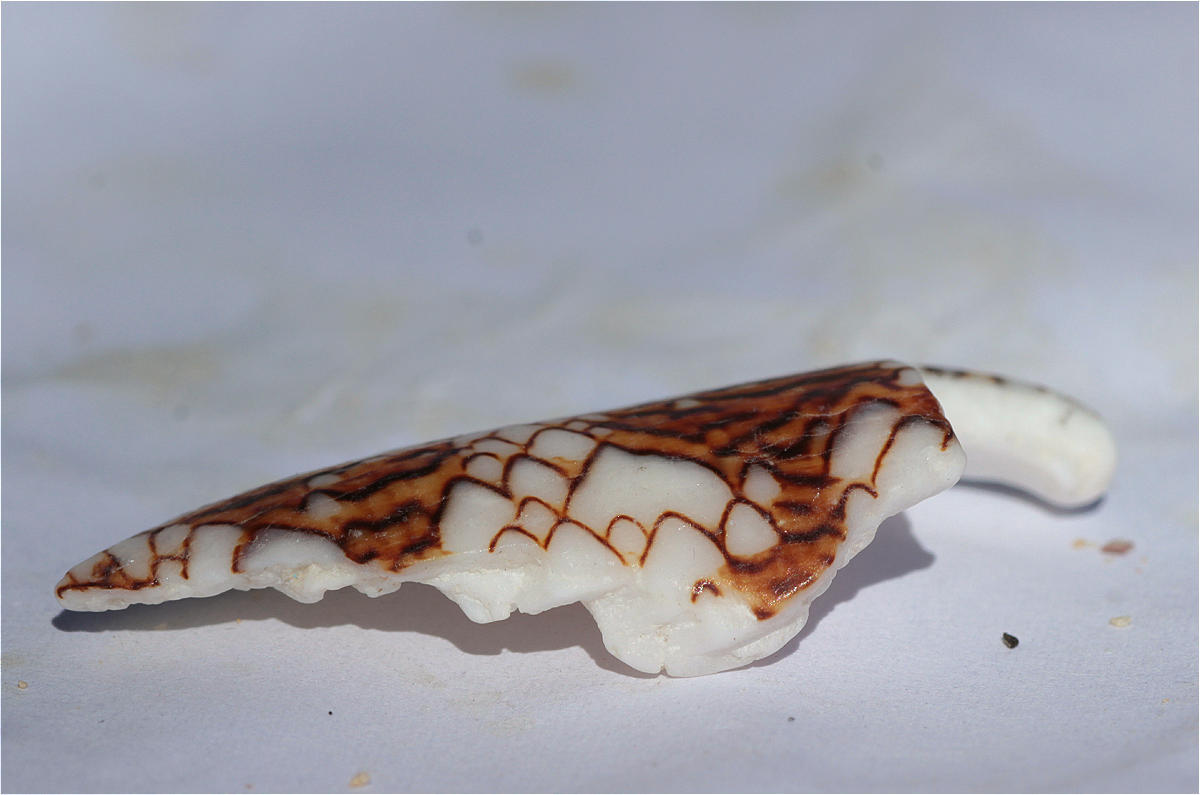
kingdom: Animalia
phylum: Mollusca
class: Gastropoda
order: Neogastropoda
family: Conidae
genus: Conus
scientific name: Conus textile
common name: Cloth-of-gold cone
